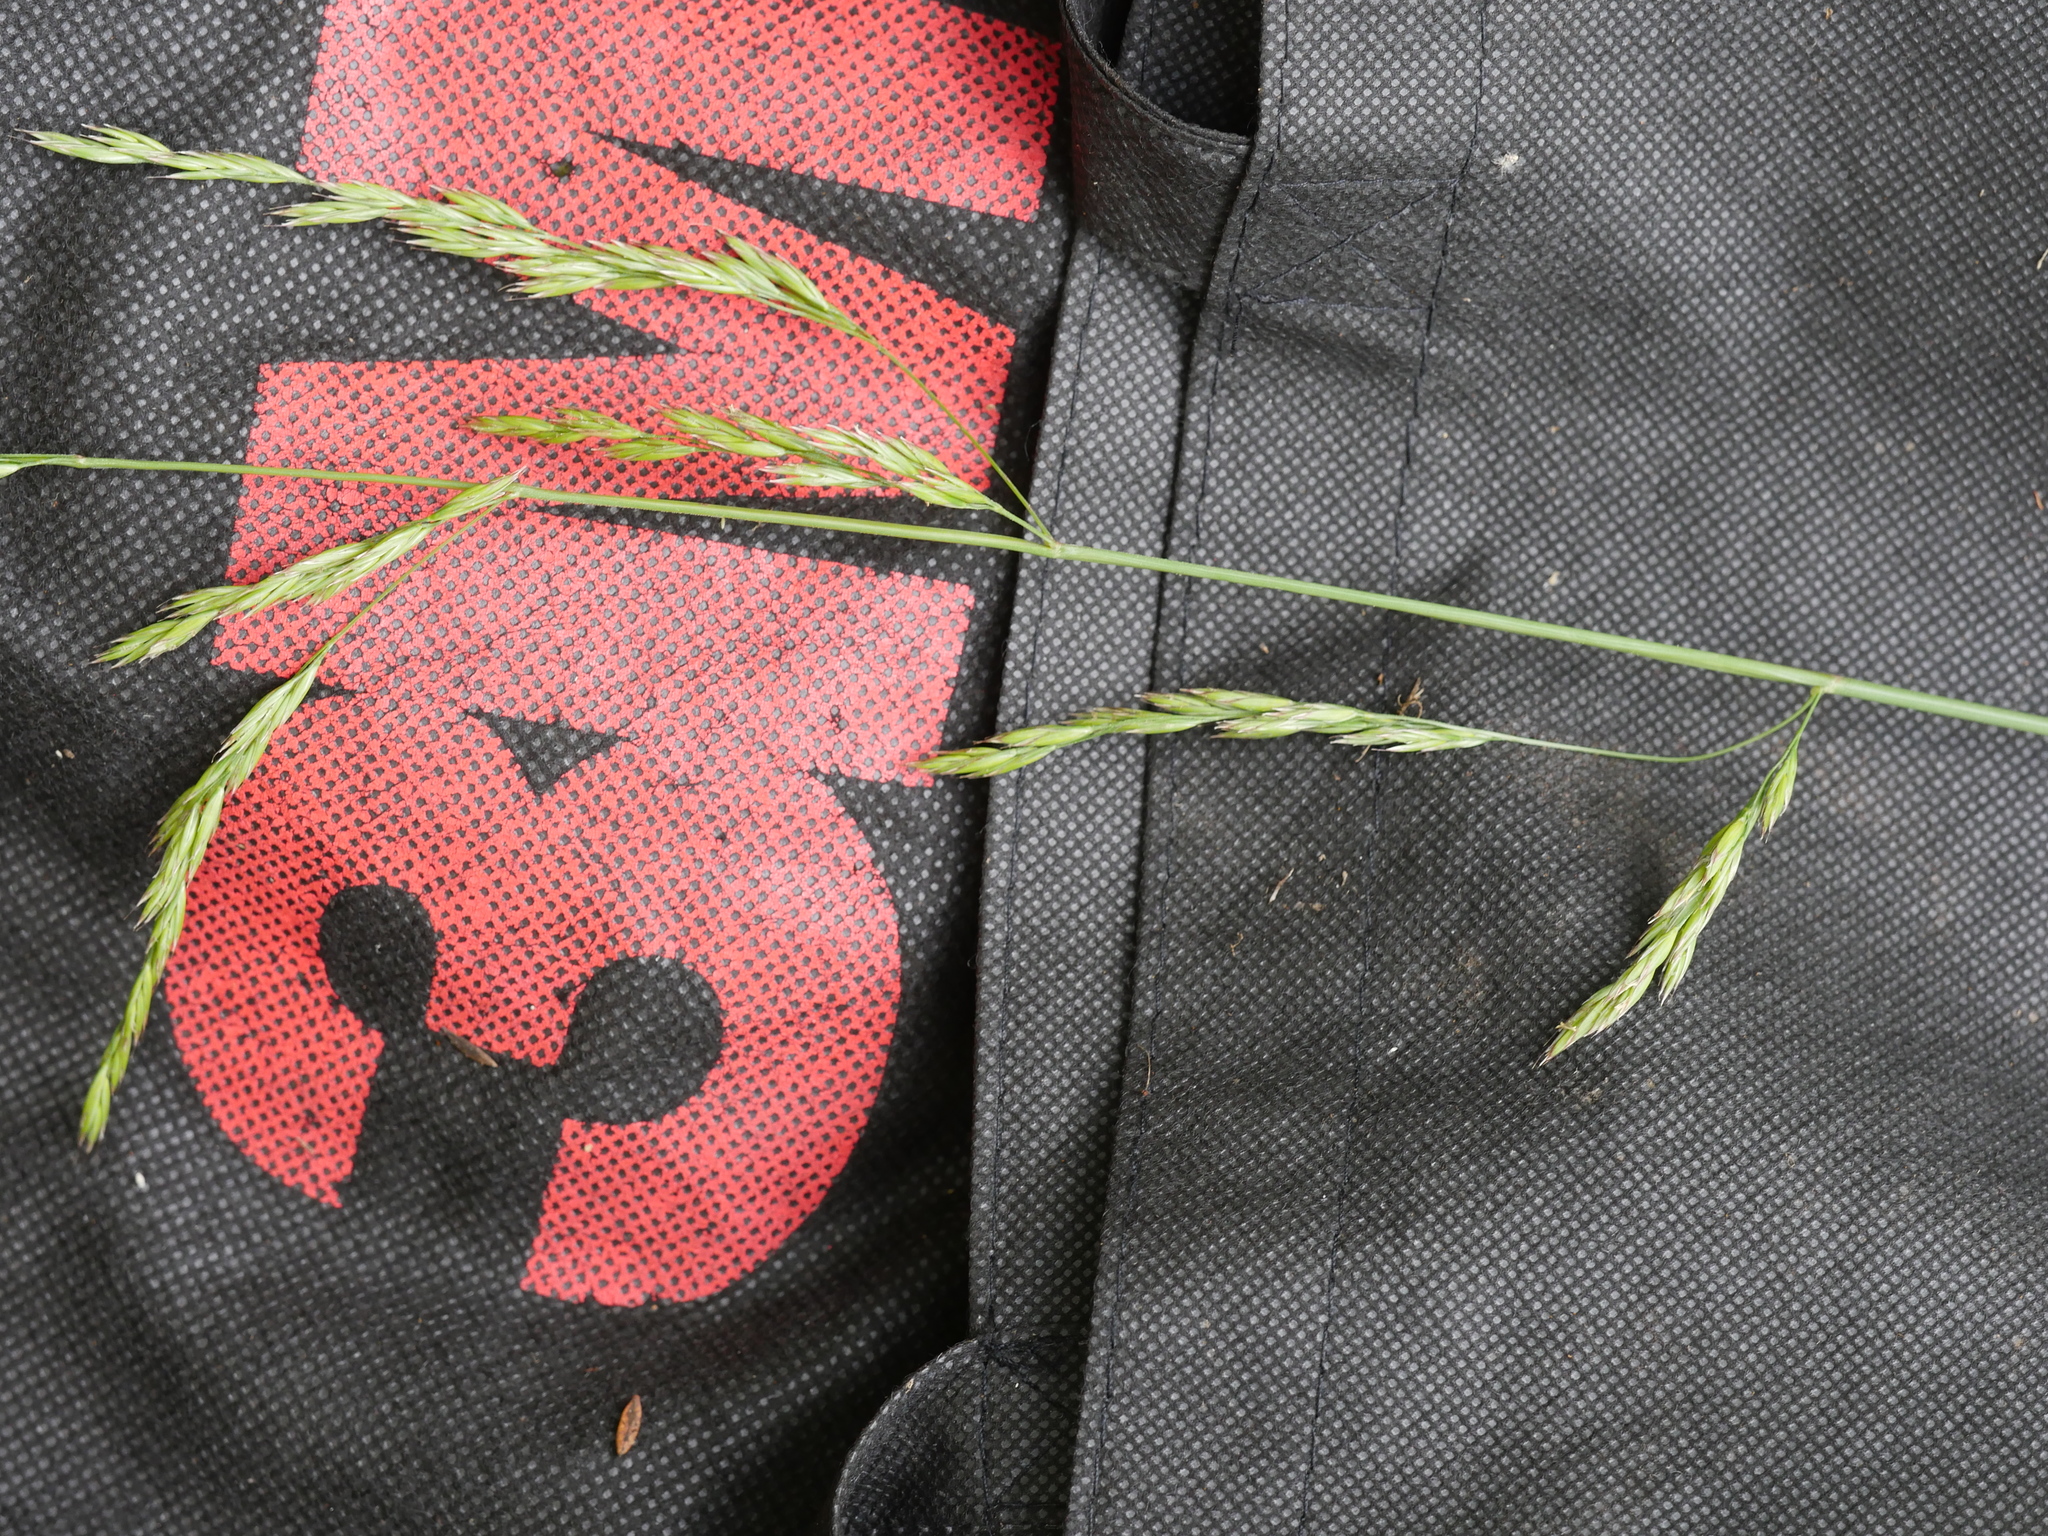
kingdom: Plantae
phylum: Tracheophyta
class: Liliopsida
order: Poales
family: Poaceae
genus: Lolium
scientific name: Lolium arundinaceum
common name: Reed fescue
